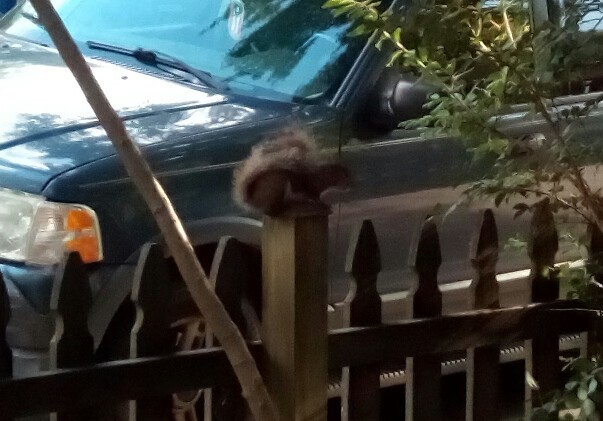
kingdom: Animalia
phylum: Chordata
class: Mammalia
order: Rodentia
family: Sciuridae
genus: Sciurus
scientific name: Sciurus carolinensis
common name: Eastern gray squirrel
